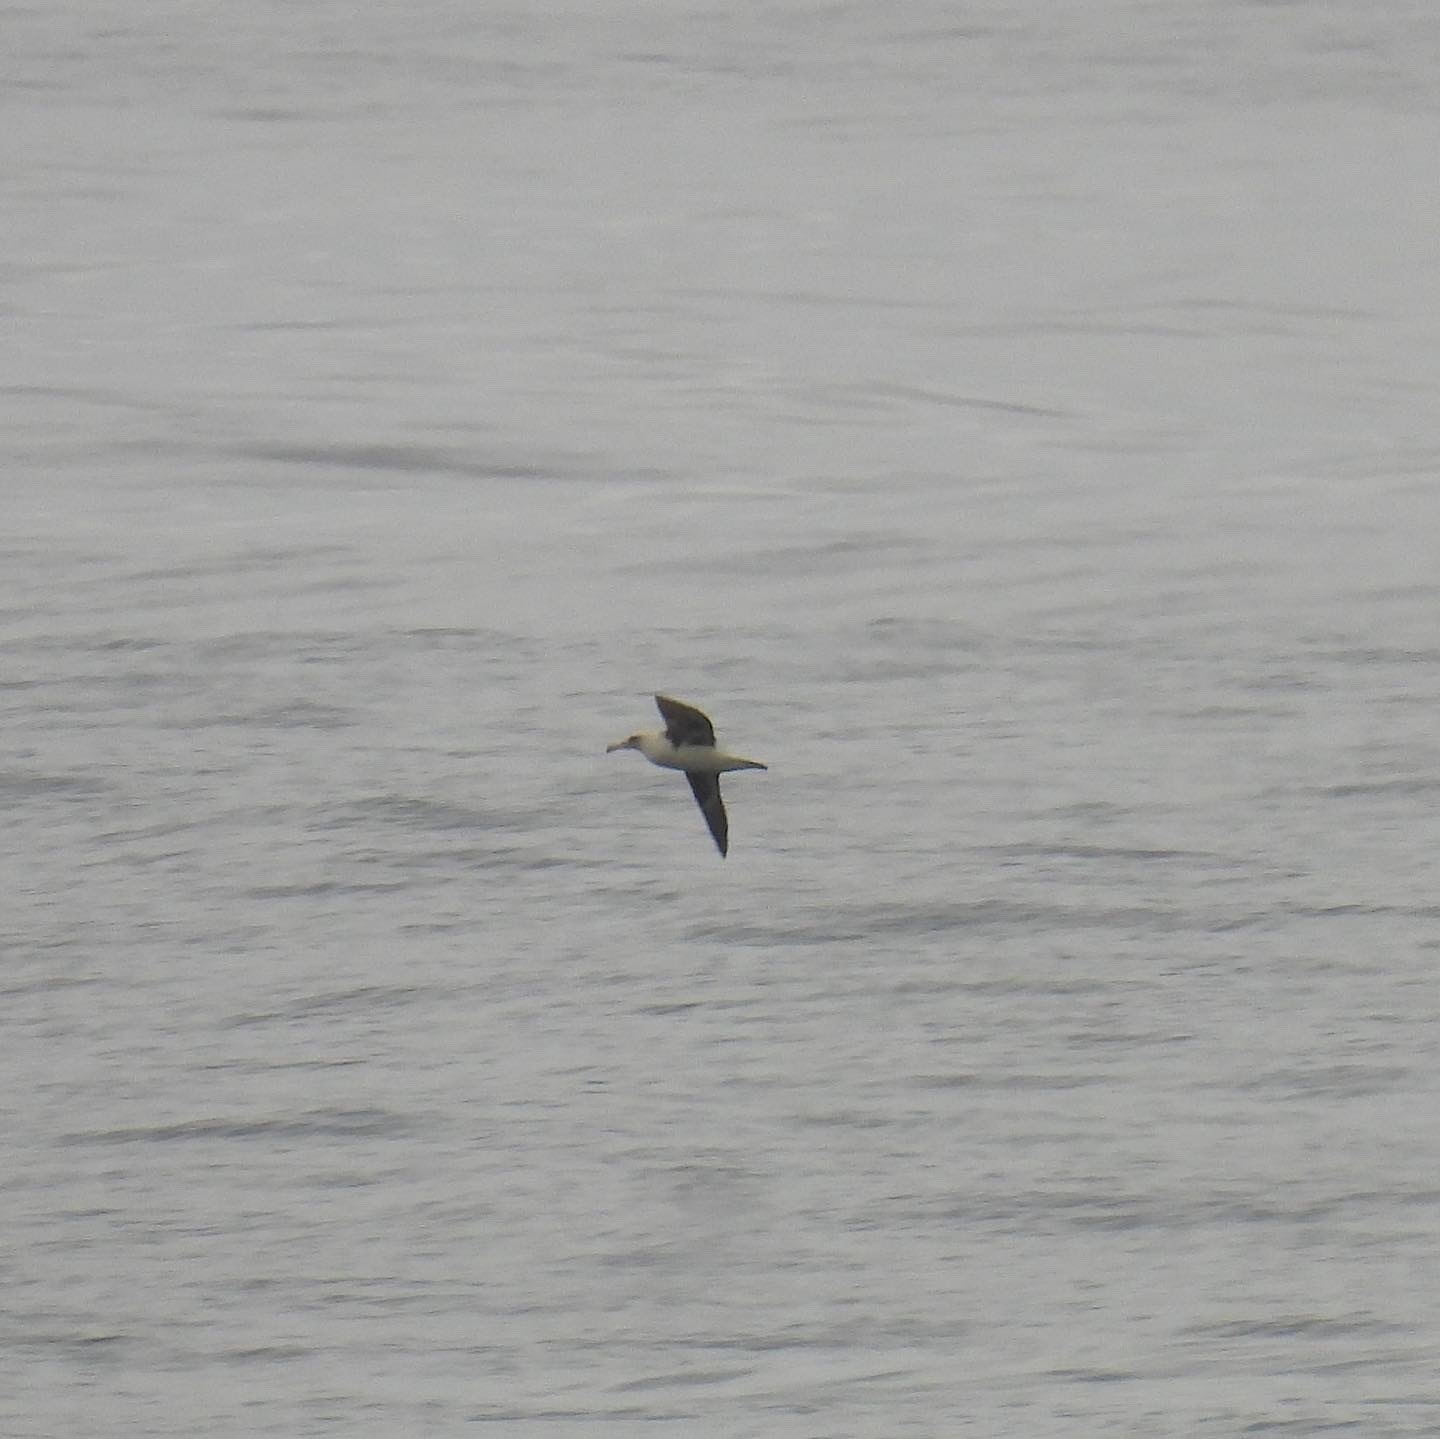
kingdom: Animalia
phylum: Chordata
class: Aves
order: Procellariiformes
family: Diomedeidae
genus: Phoebastria
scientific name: Phoebastria immutabilis
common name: Laysan albatross
